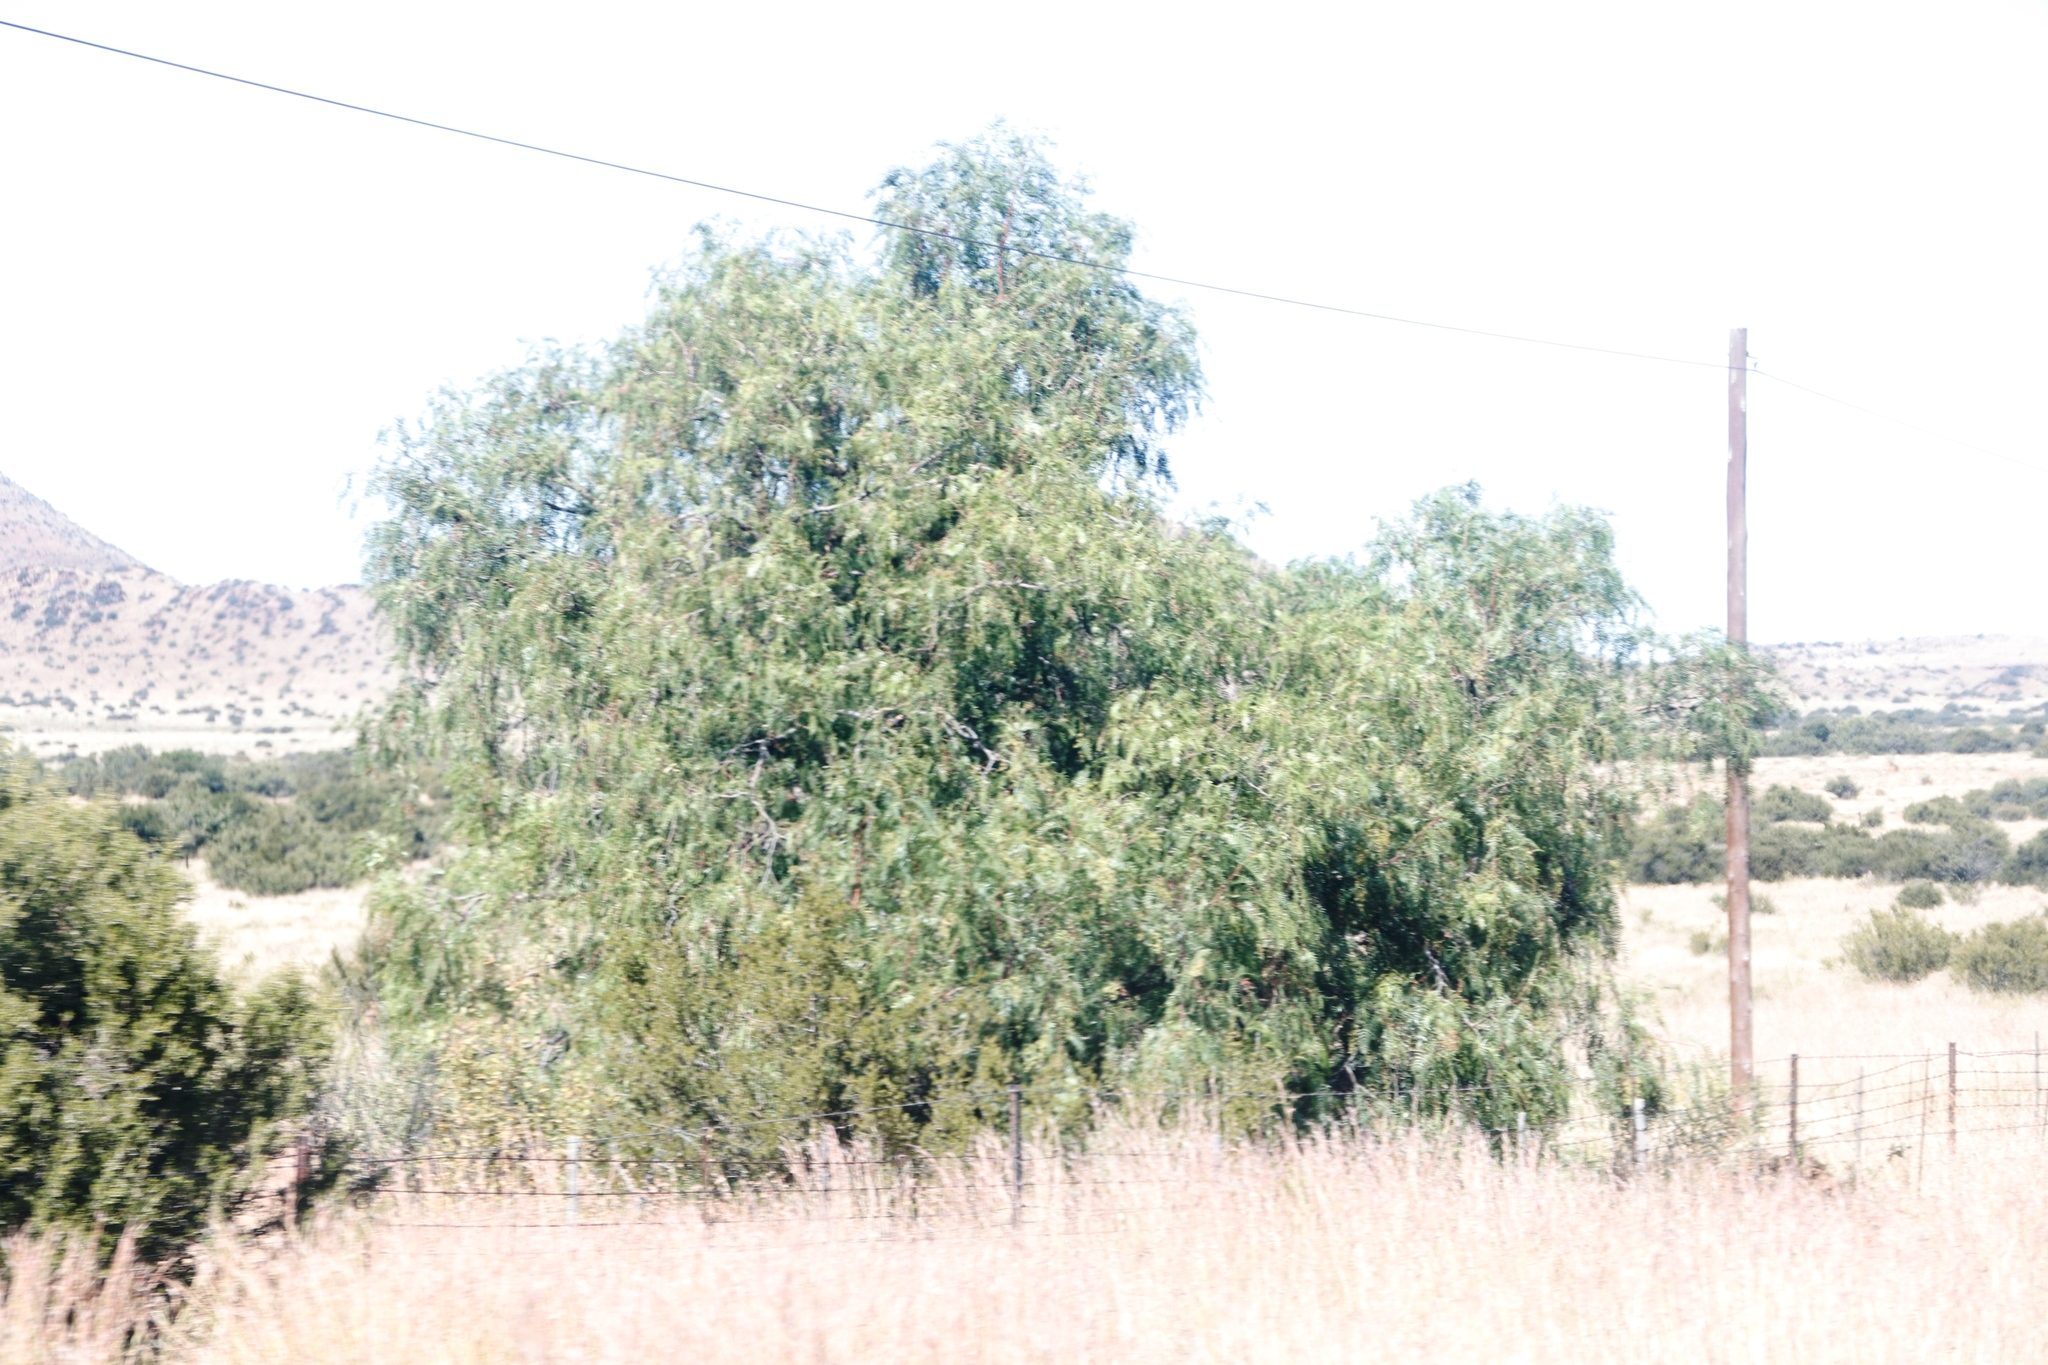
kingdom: Plantae
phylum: Tracheophyta
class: Magnoliopsida
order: Sapindales
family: Anacardiaceae
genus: Schinus
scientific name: Schinus molle
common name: Peruvian peppertree
